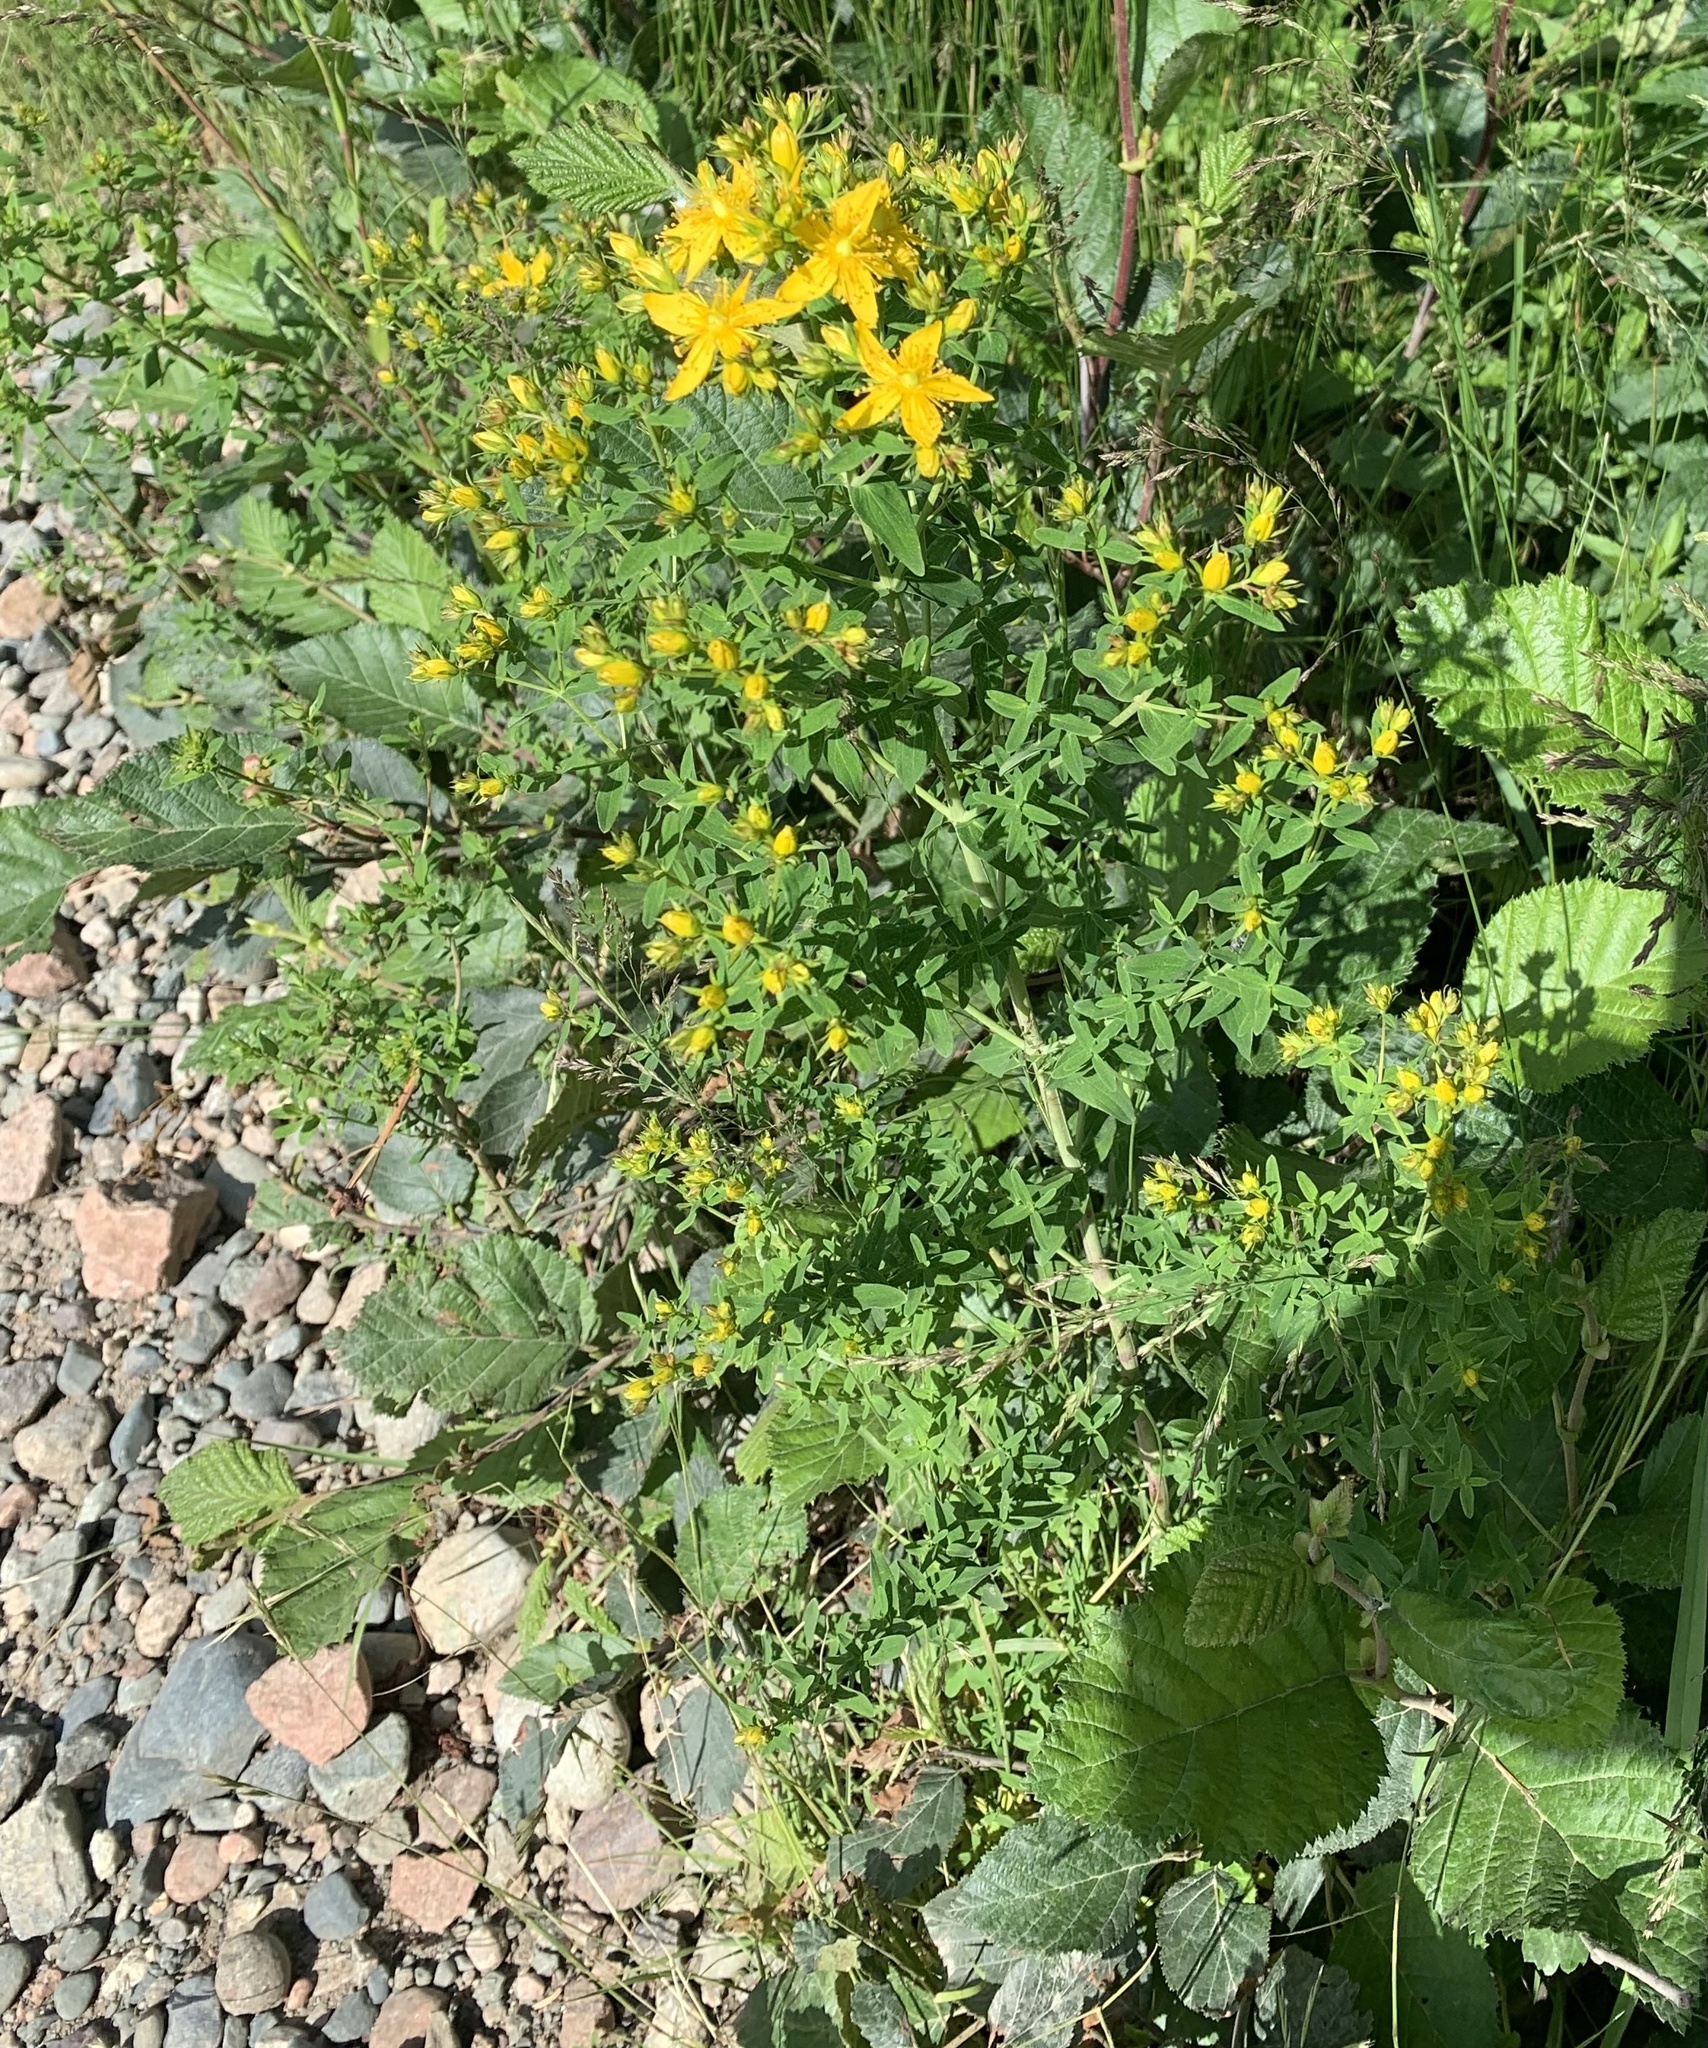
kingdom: Plantae
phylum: Tracheophyta
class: Magnoliopsida
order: Malpighiales
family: Hypericaceae
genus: Hypericum
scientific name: Hypericum perforatum
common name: Common st. johnswort
